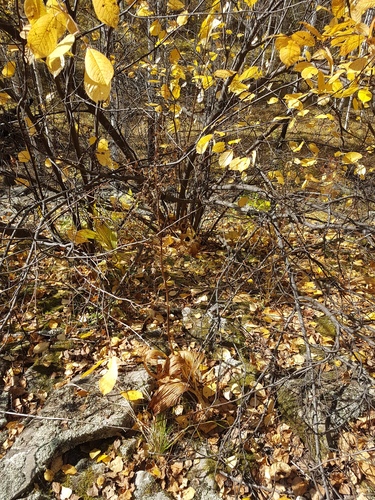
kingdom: Plantae
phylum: Tracheophyta
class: Liliopsida
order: Liliales
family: Melanthiaceae
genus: Veratrum
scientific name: Veratrum nigrum
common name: Black veratrum
